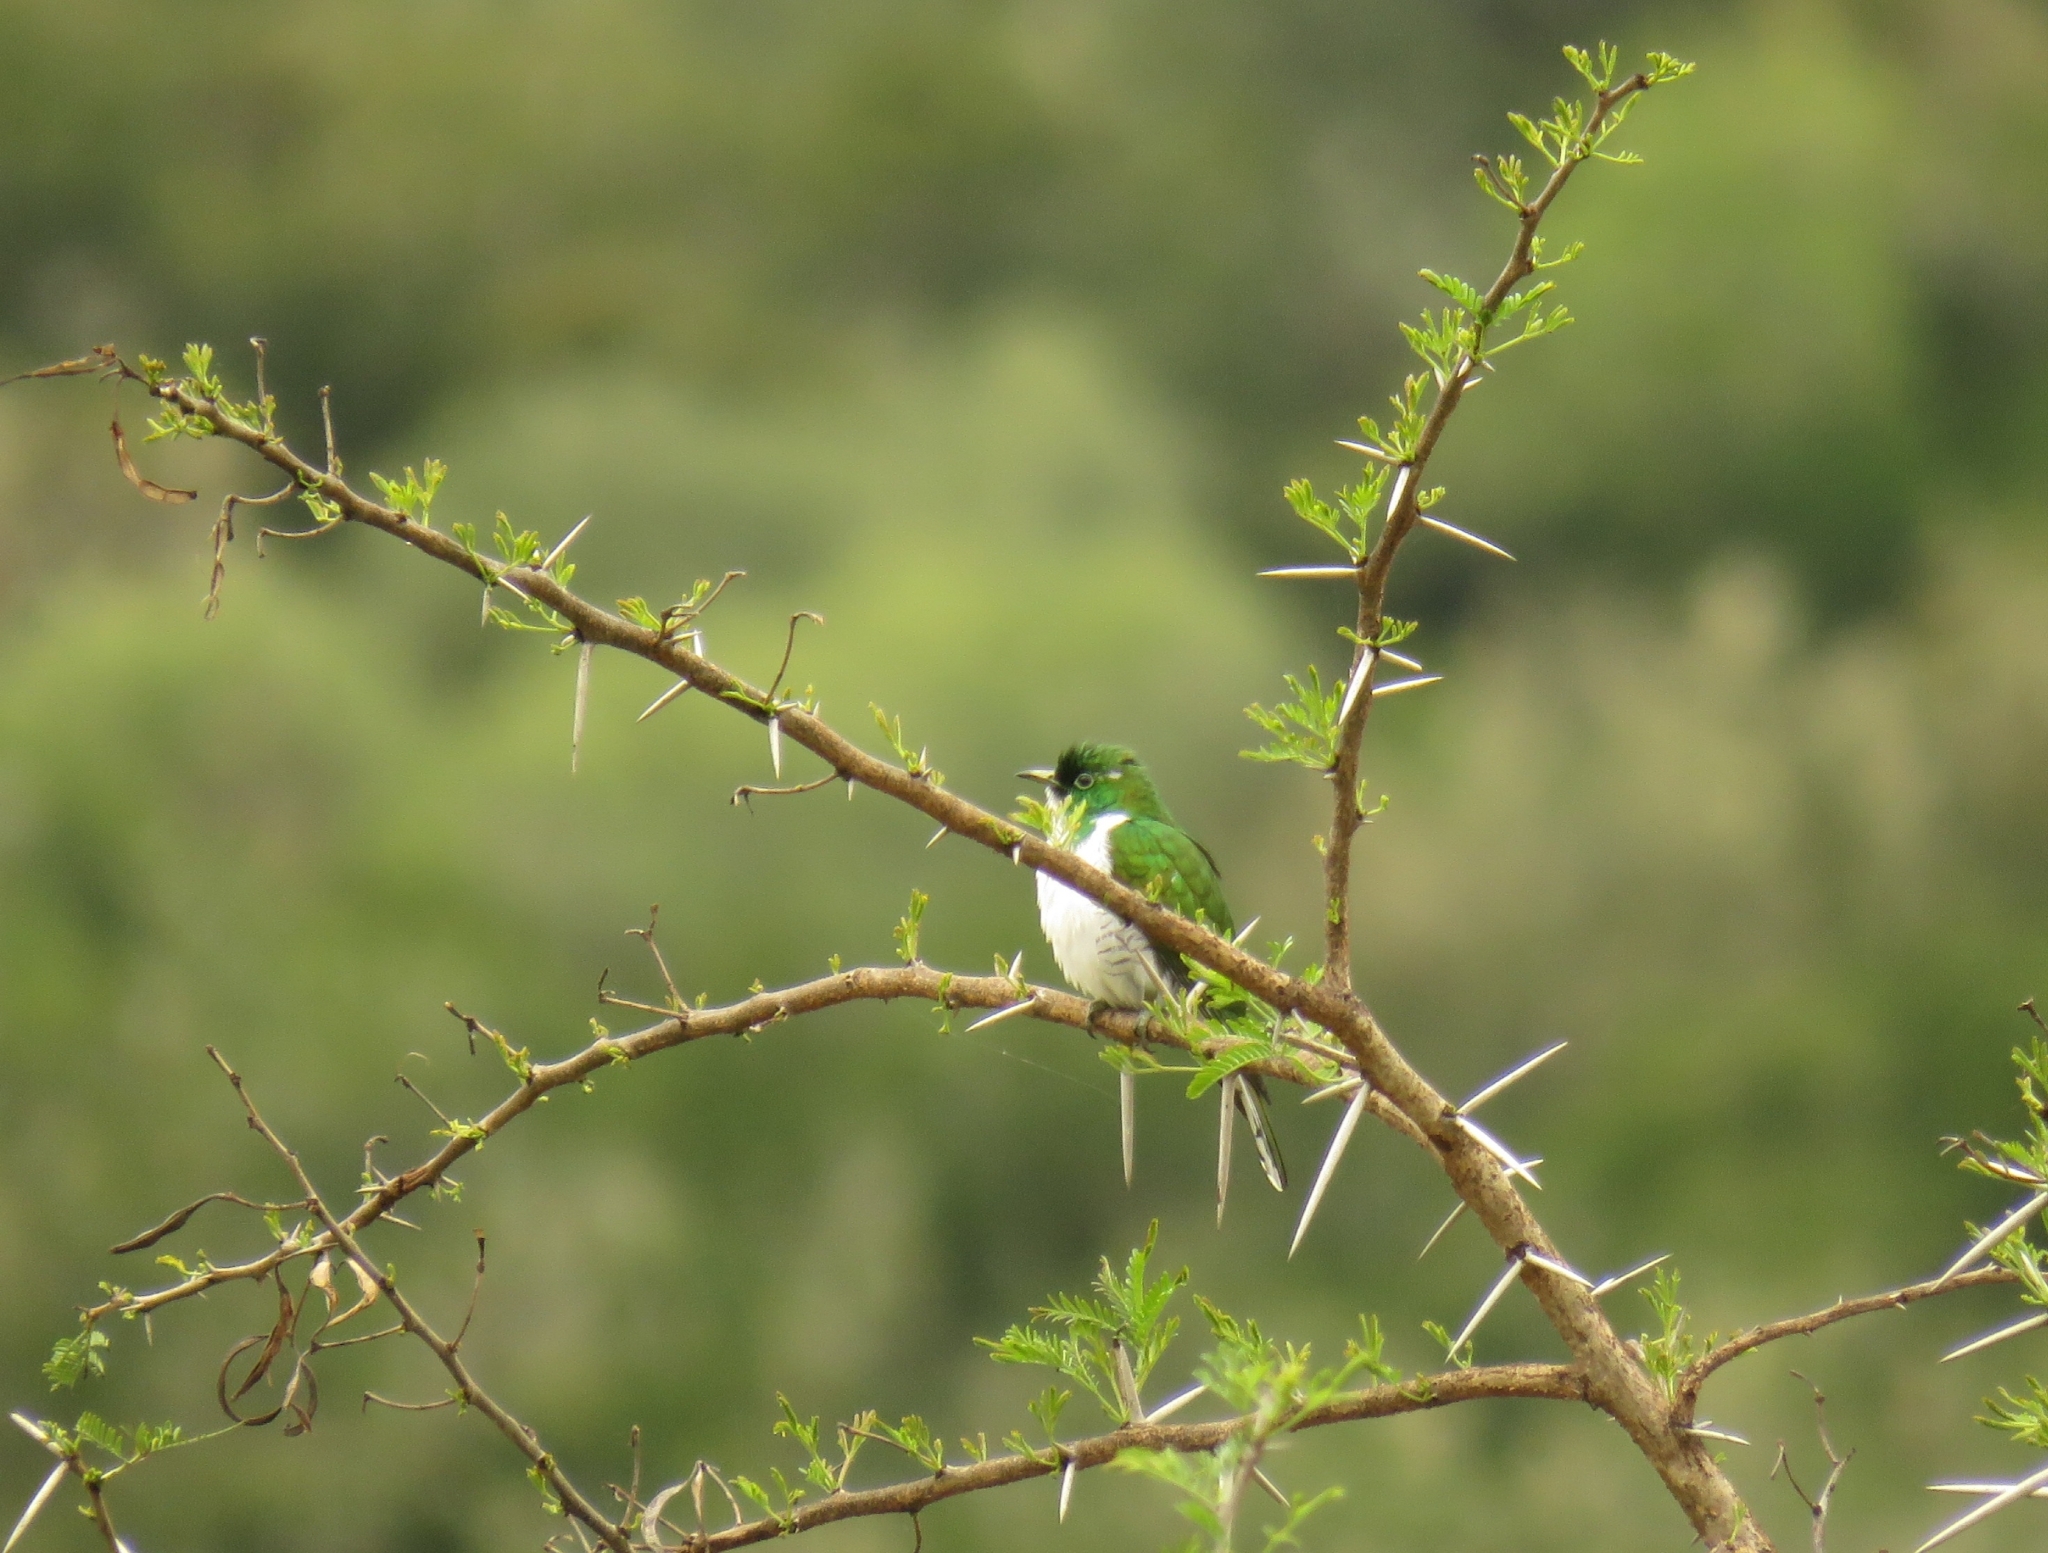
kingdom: Animalia
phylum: Chordata
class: Aves
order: Cuculiformes
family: Cuculidae
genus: Chrysococcyx
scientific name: Chrysococcyx klaas
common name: Klaas's cuckoo
